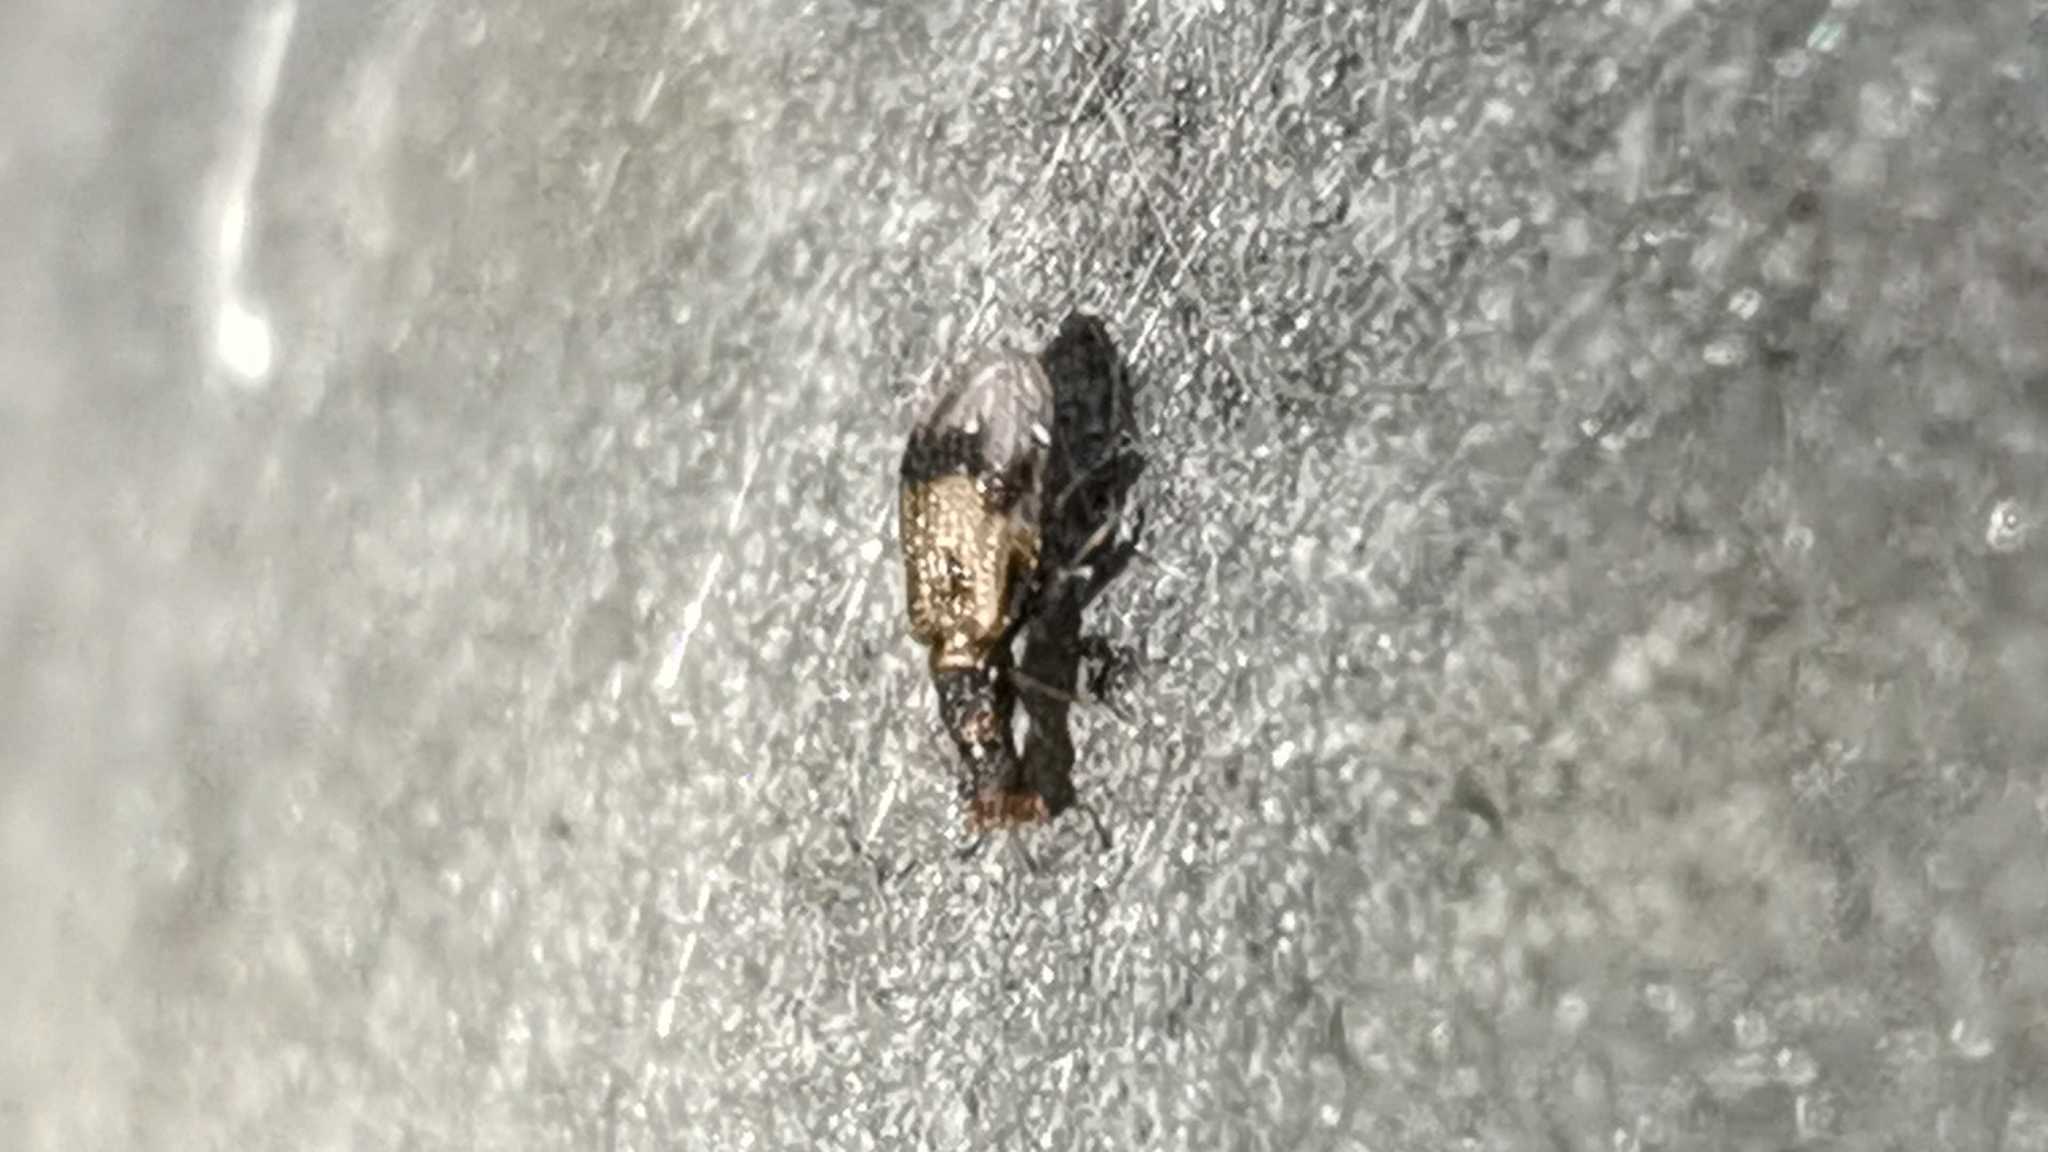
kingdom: Animalia
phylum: Arthropoda
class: Insecta
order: Coleoptera
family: Latridiidae
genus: Cartodere
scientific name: Cartodere bifasciata
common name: Plaster beetle
